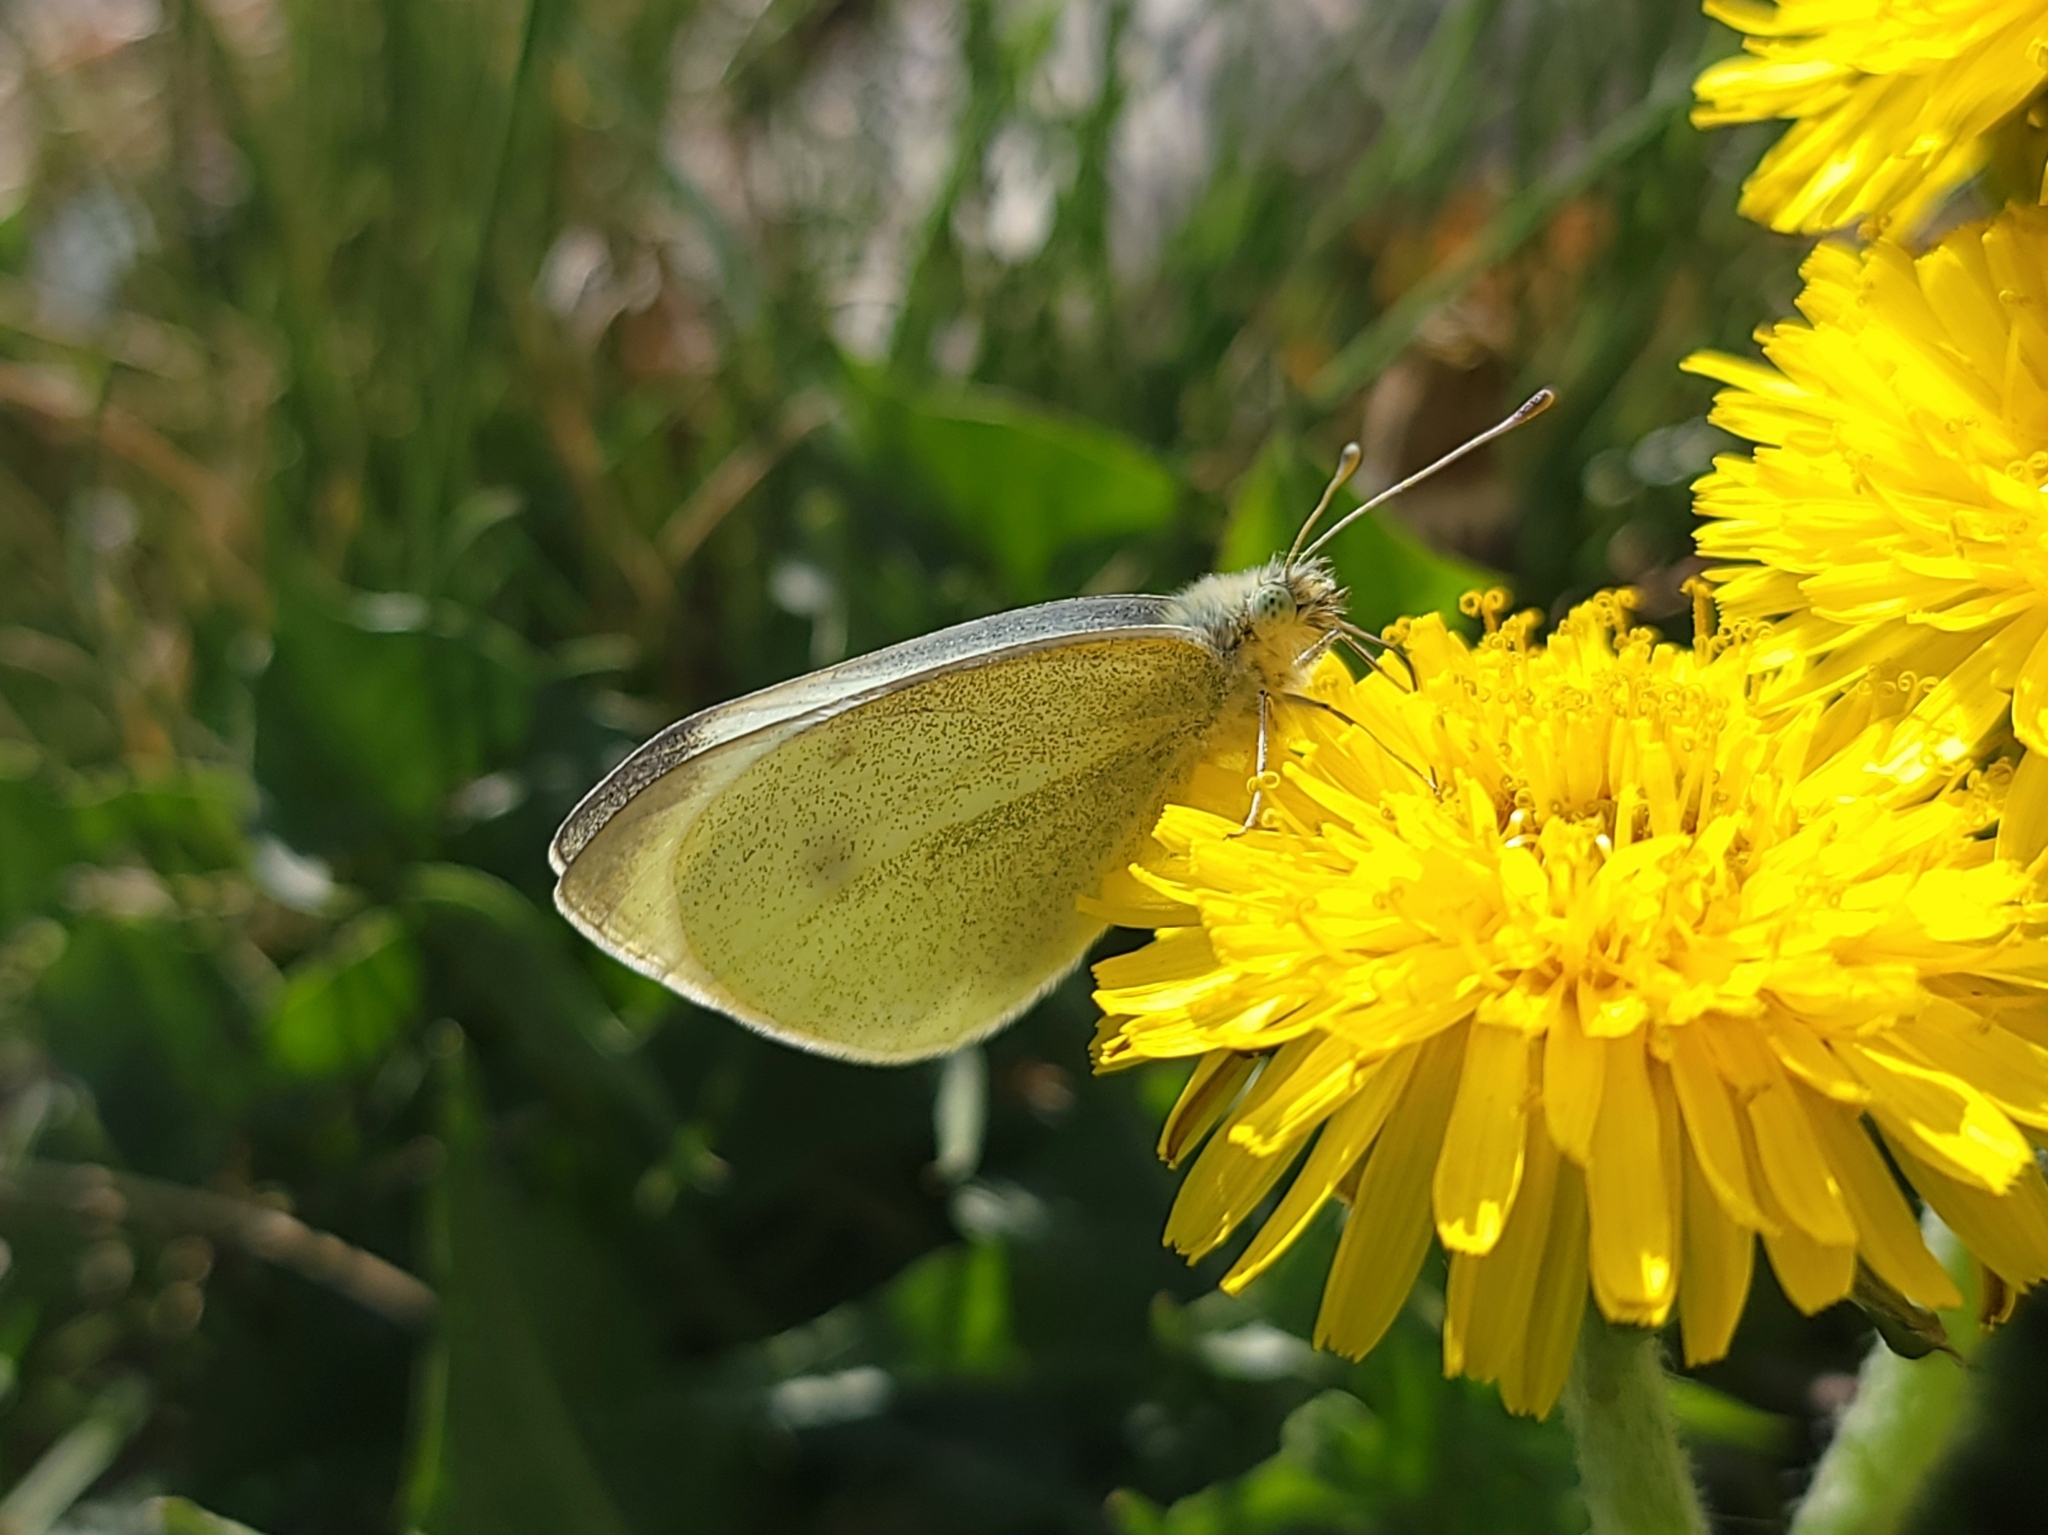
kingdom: Animalia
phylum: Arthropoda
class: Insecta
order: Lepidoptera
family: Pieridae
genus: Pieris
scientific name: Pieris rapae
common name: Small white
